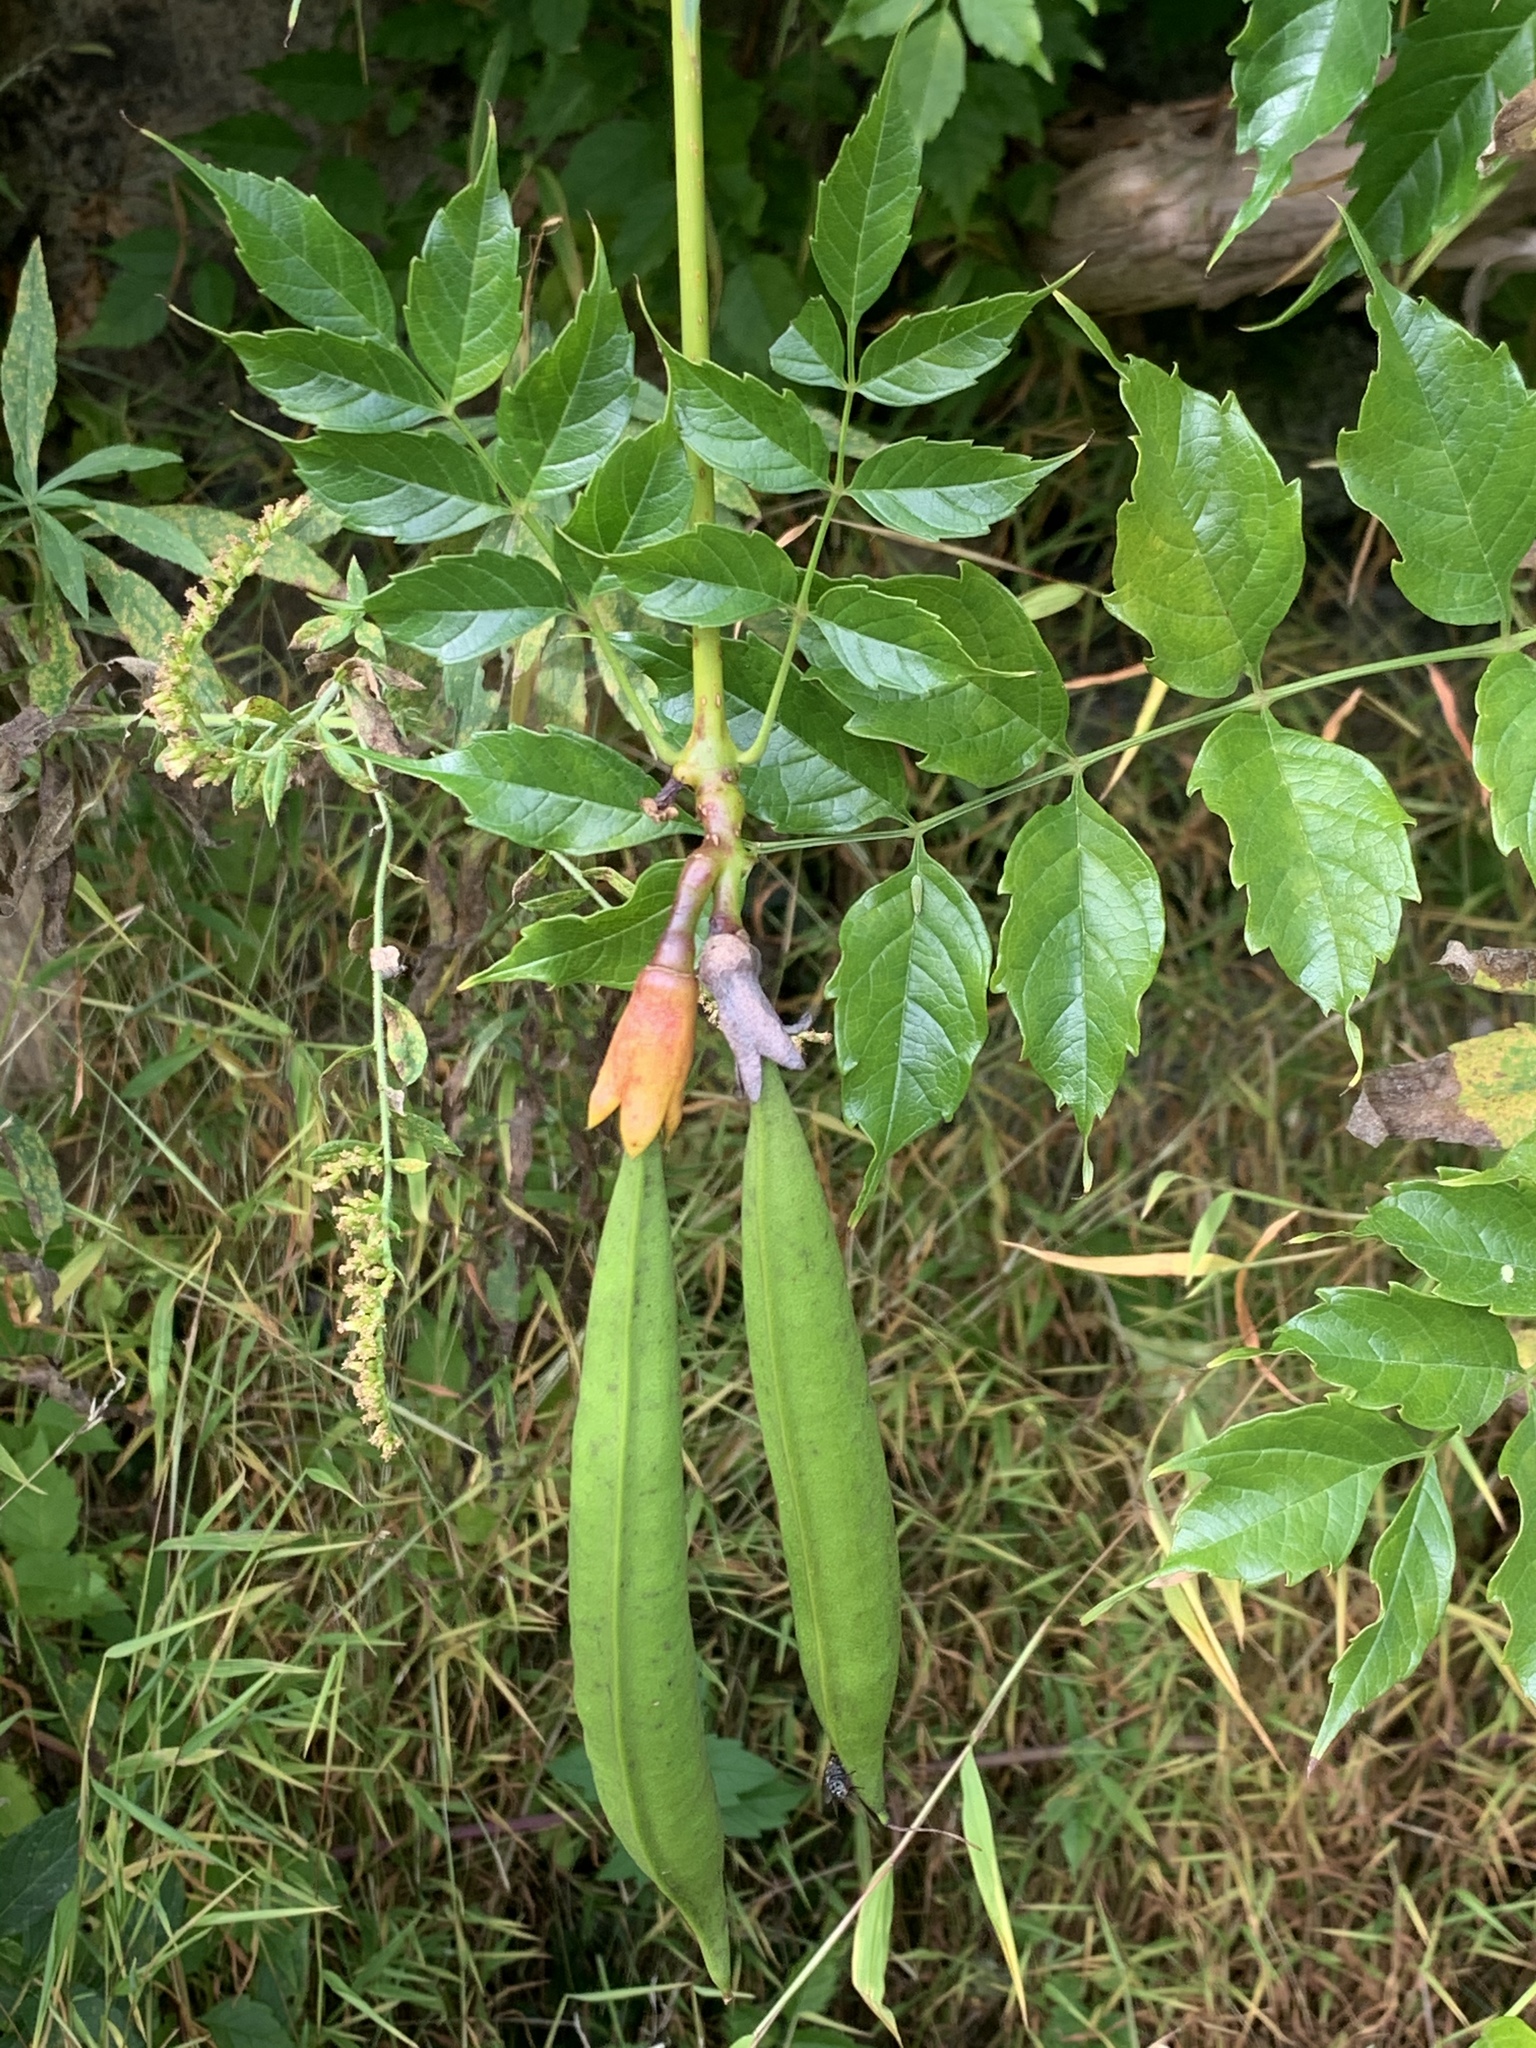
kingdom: Plantae
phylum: Tracheophyta
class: Magnoliopsida
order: Lamiales
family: Bignoniaceae
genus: Campsis
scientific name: Campsis radicans
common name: Trumpet-creeper
